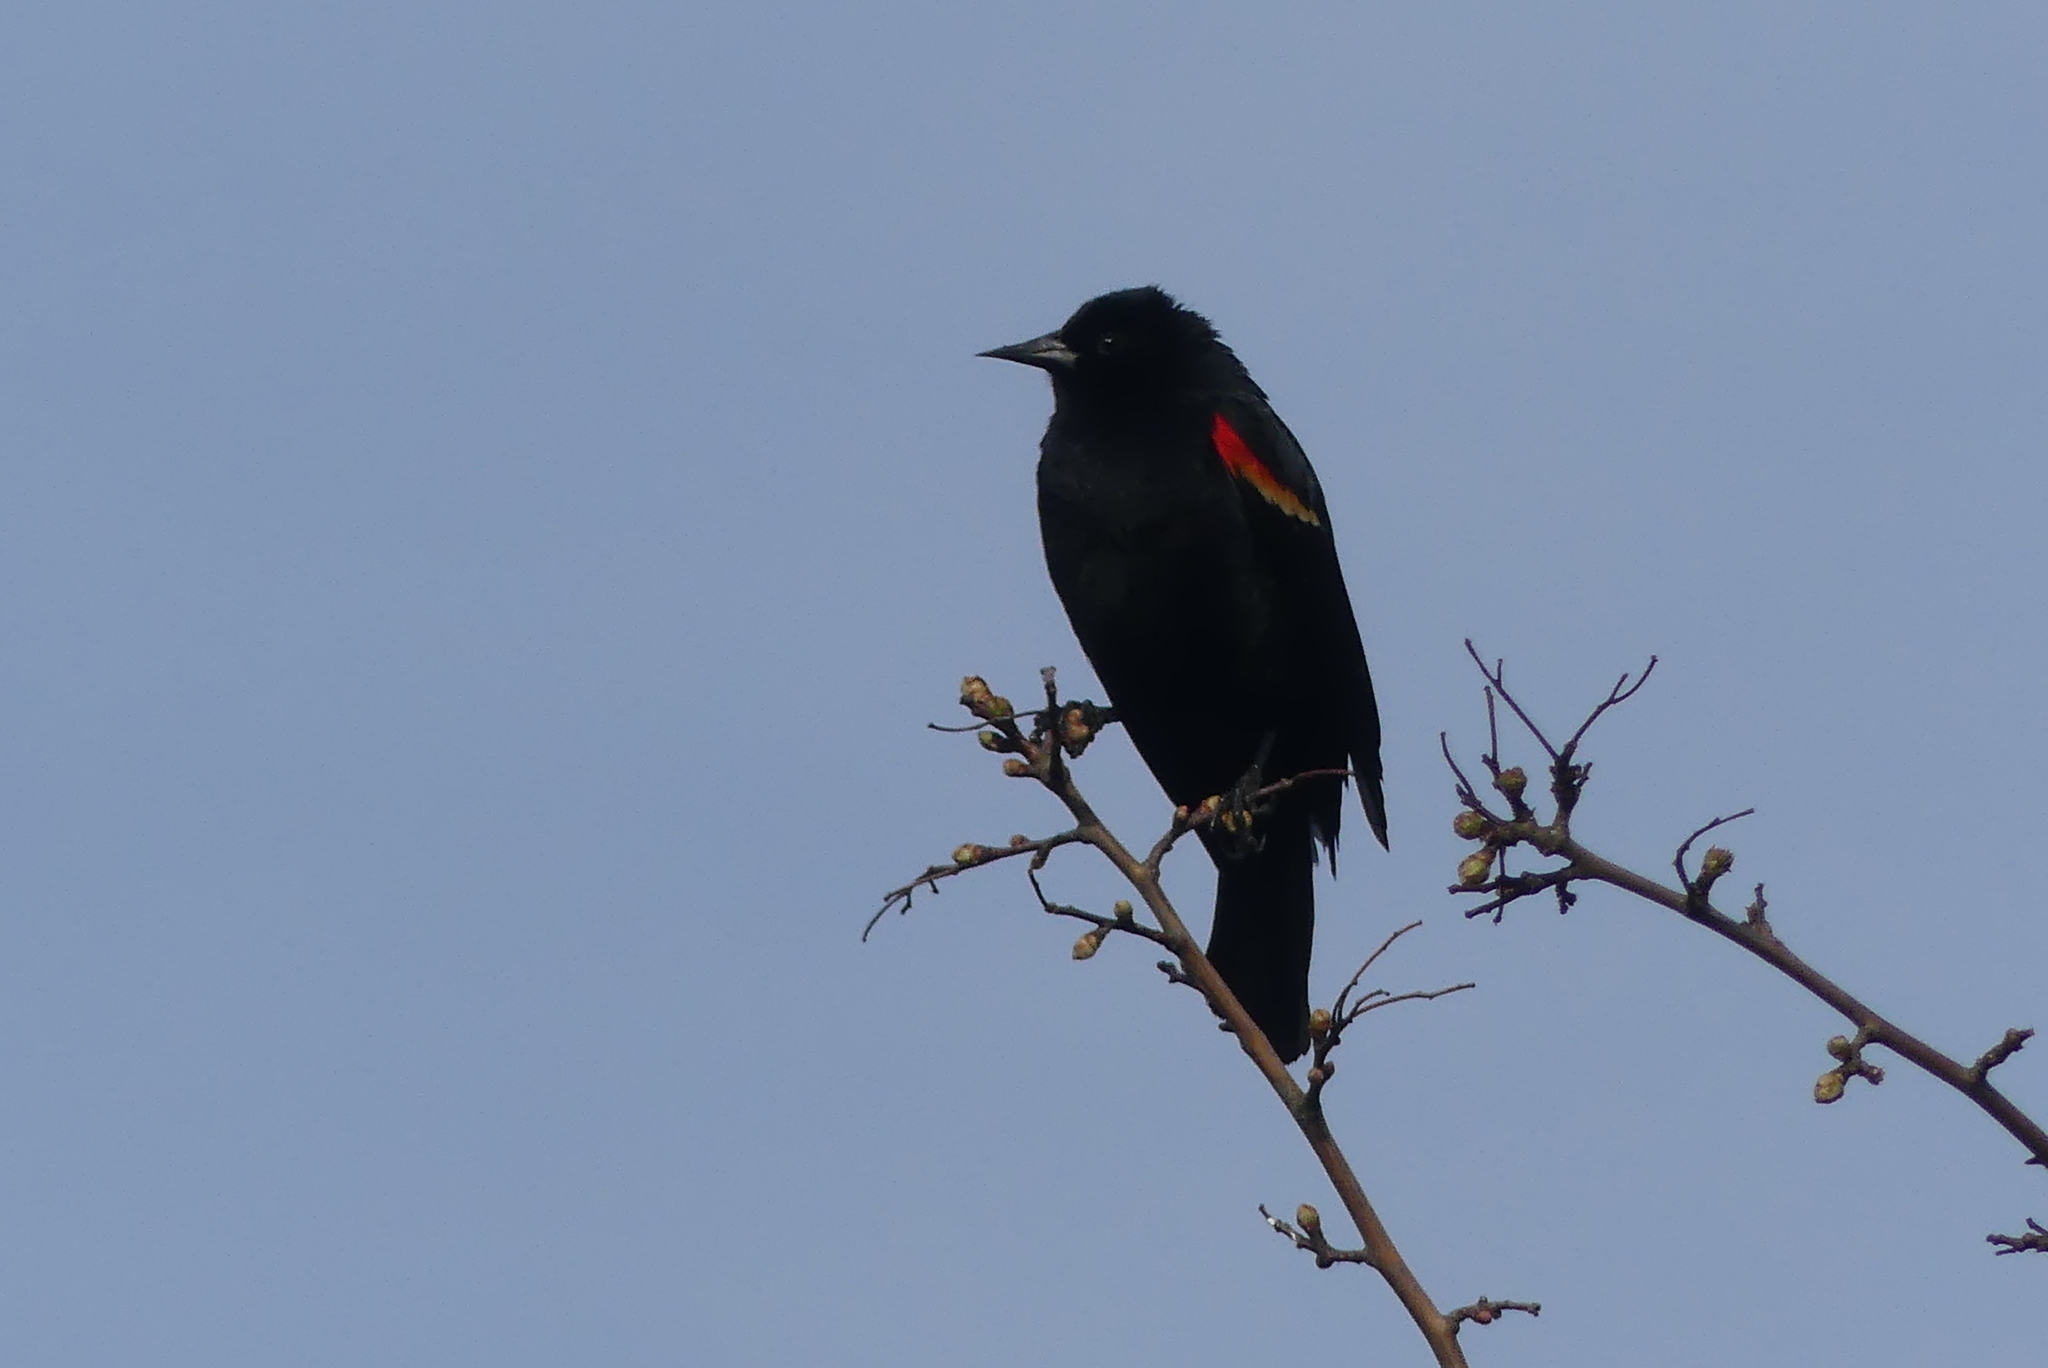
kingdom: Animalia
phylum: Chordata
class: Aves
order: Passeriformes
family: Icteridae
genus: Agelaius
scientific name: Agelaius phoeniceus
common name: Red-winged blackbird
